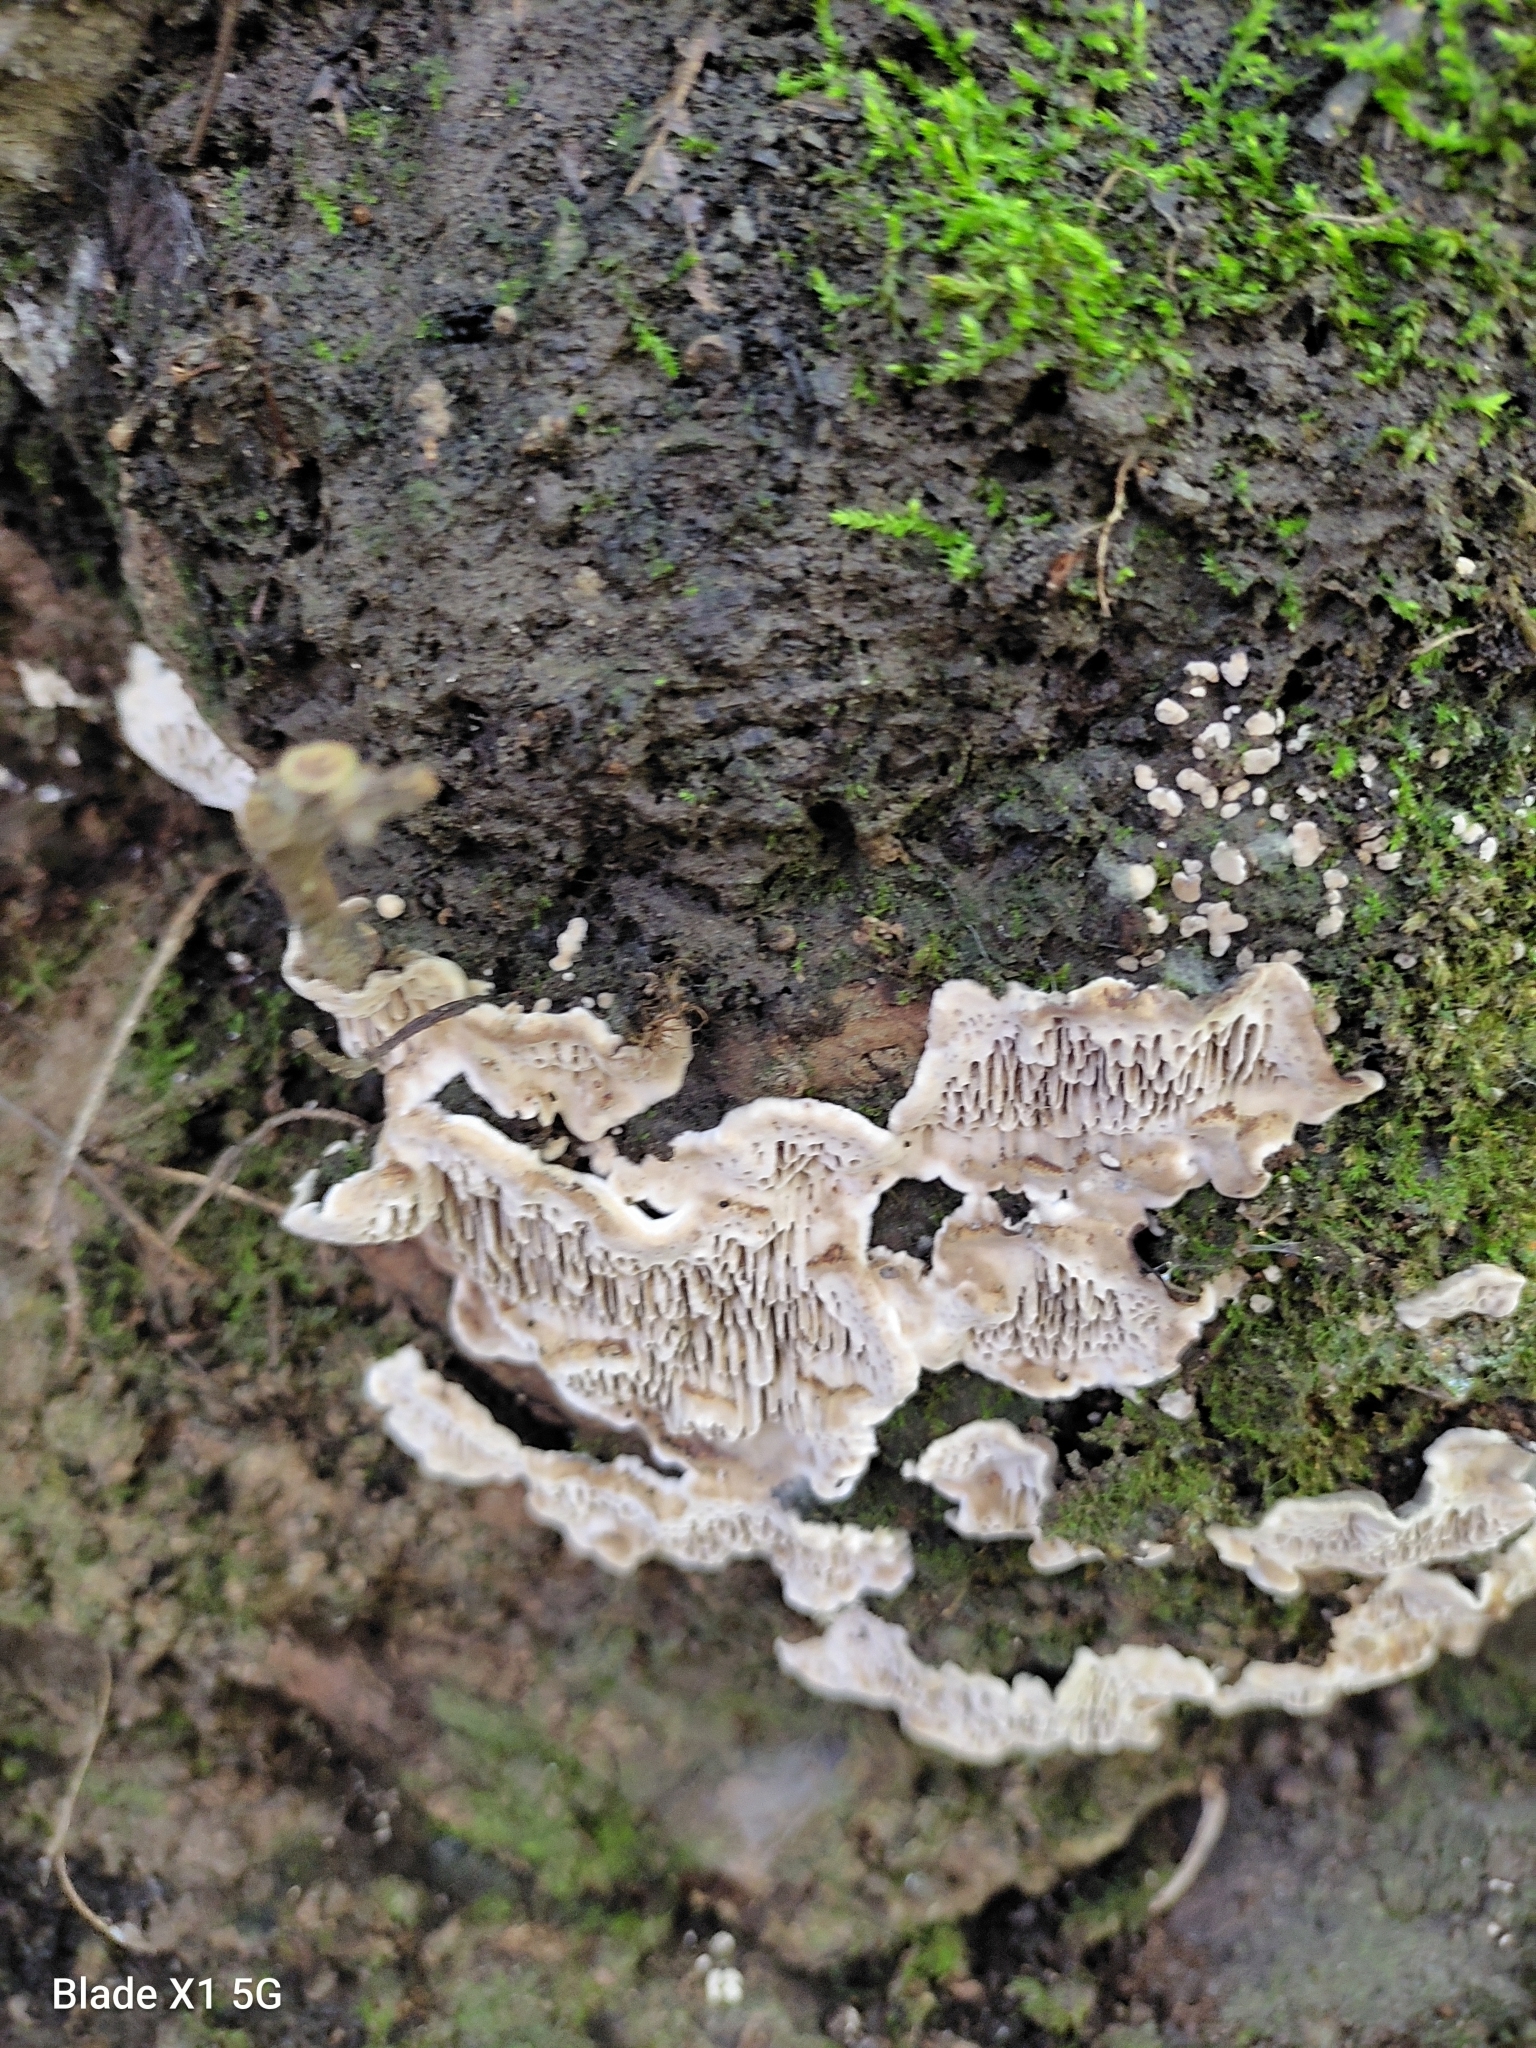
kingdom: Fungi
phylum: Basidiomycota
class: Agaricomycetes
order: Polyporales
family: Polyporaceae
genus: Podofomes
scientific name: Podofomes mollis
